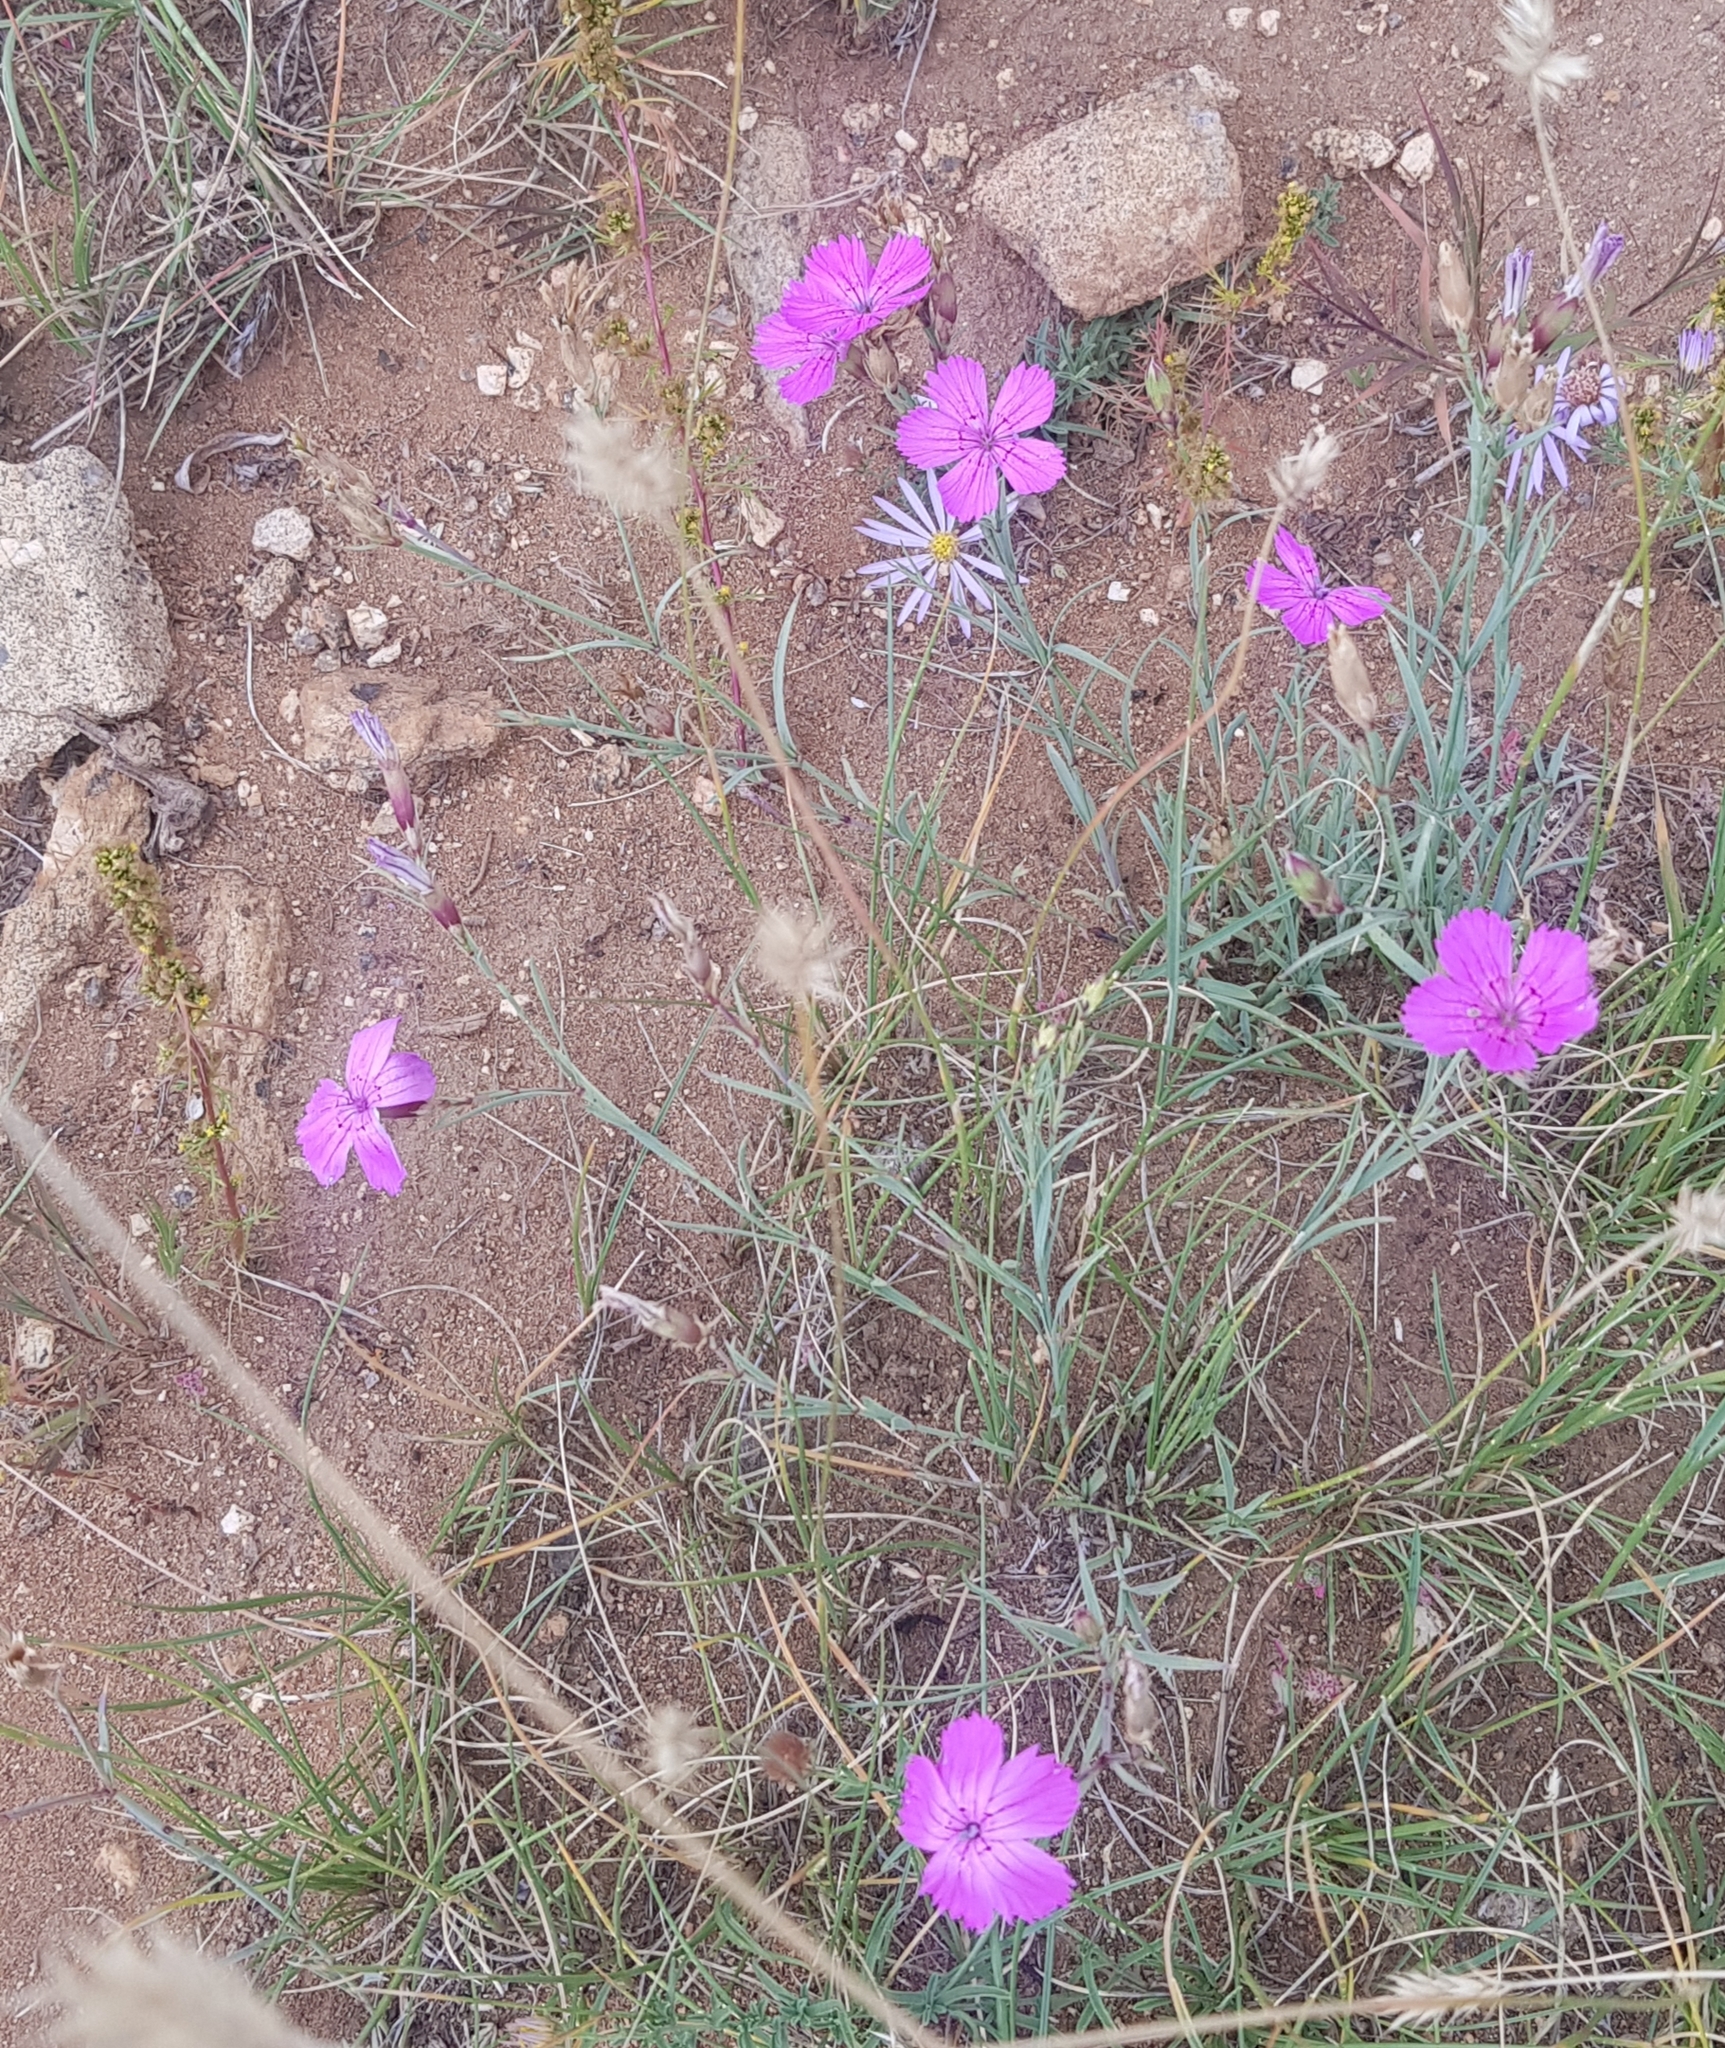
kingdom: Plantae
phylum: Tracheophyta
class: Magnoliopsida
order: Caryophyllales
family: Caryophyllaceae
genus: Dianthus
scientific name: Dianthus chinensis
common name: Rainbow pink
